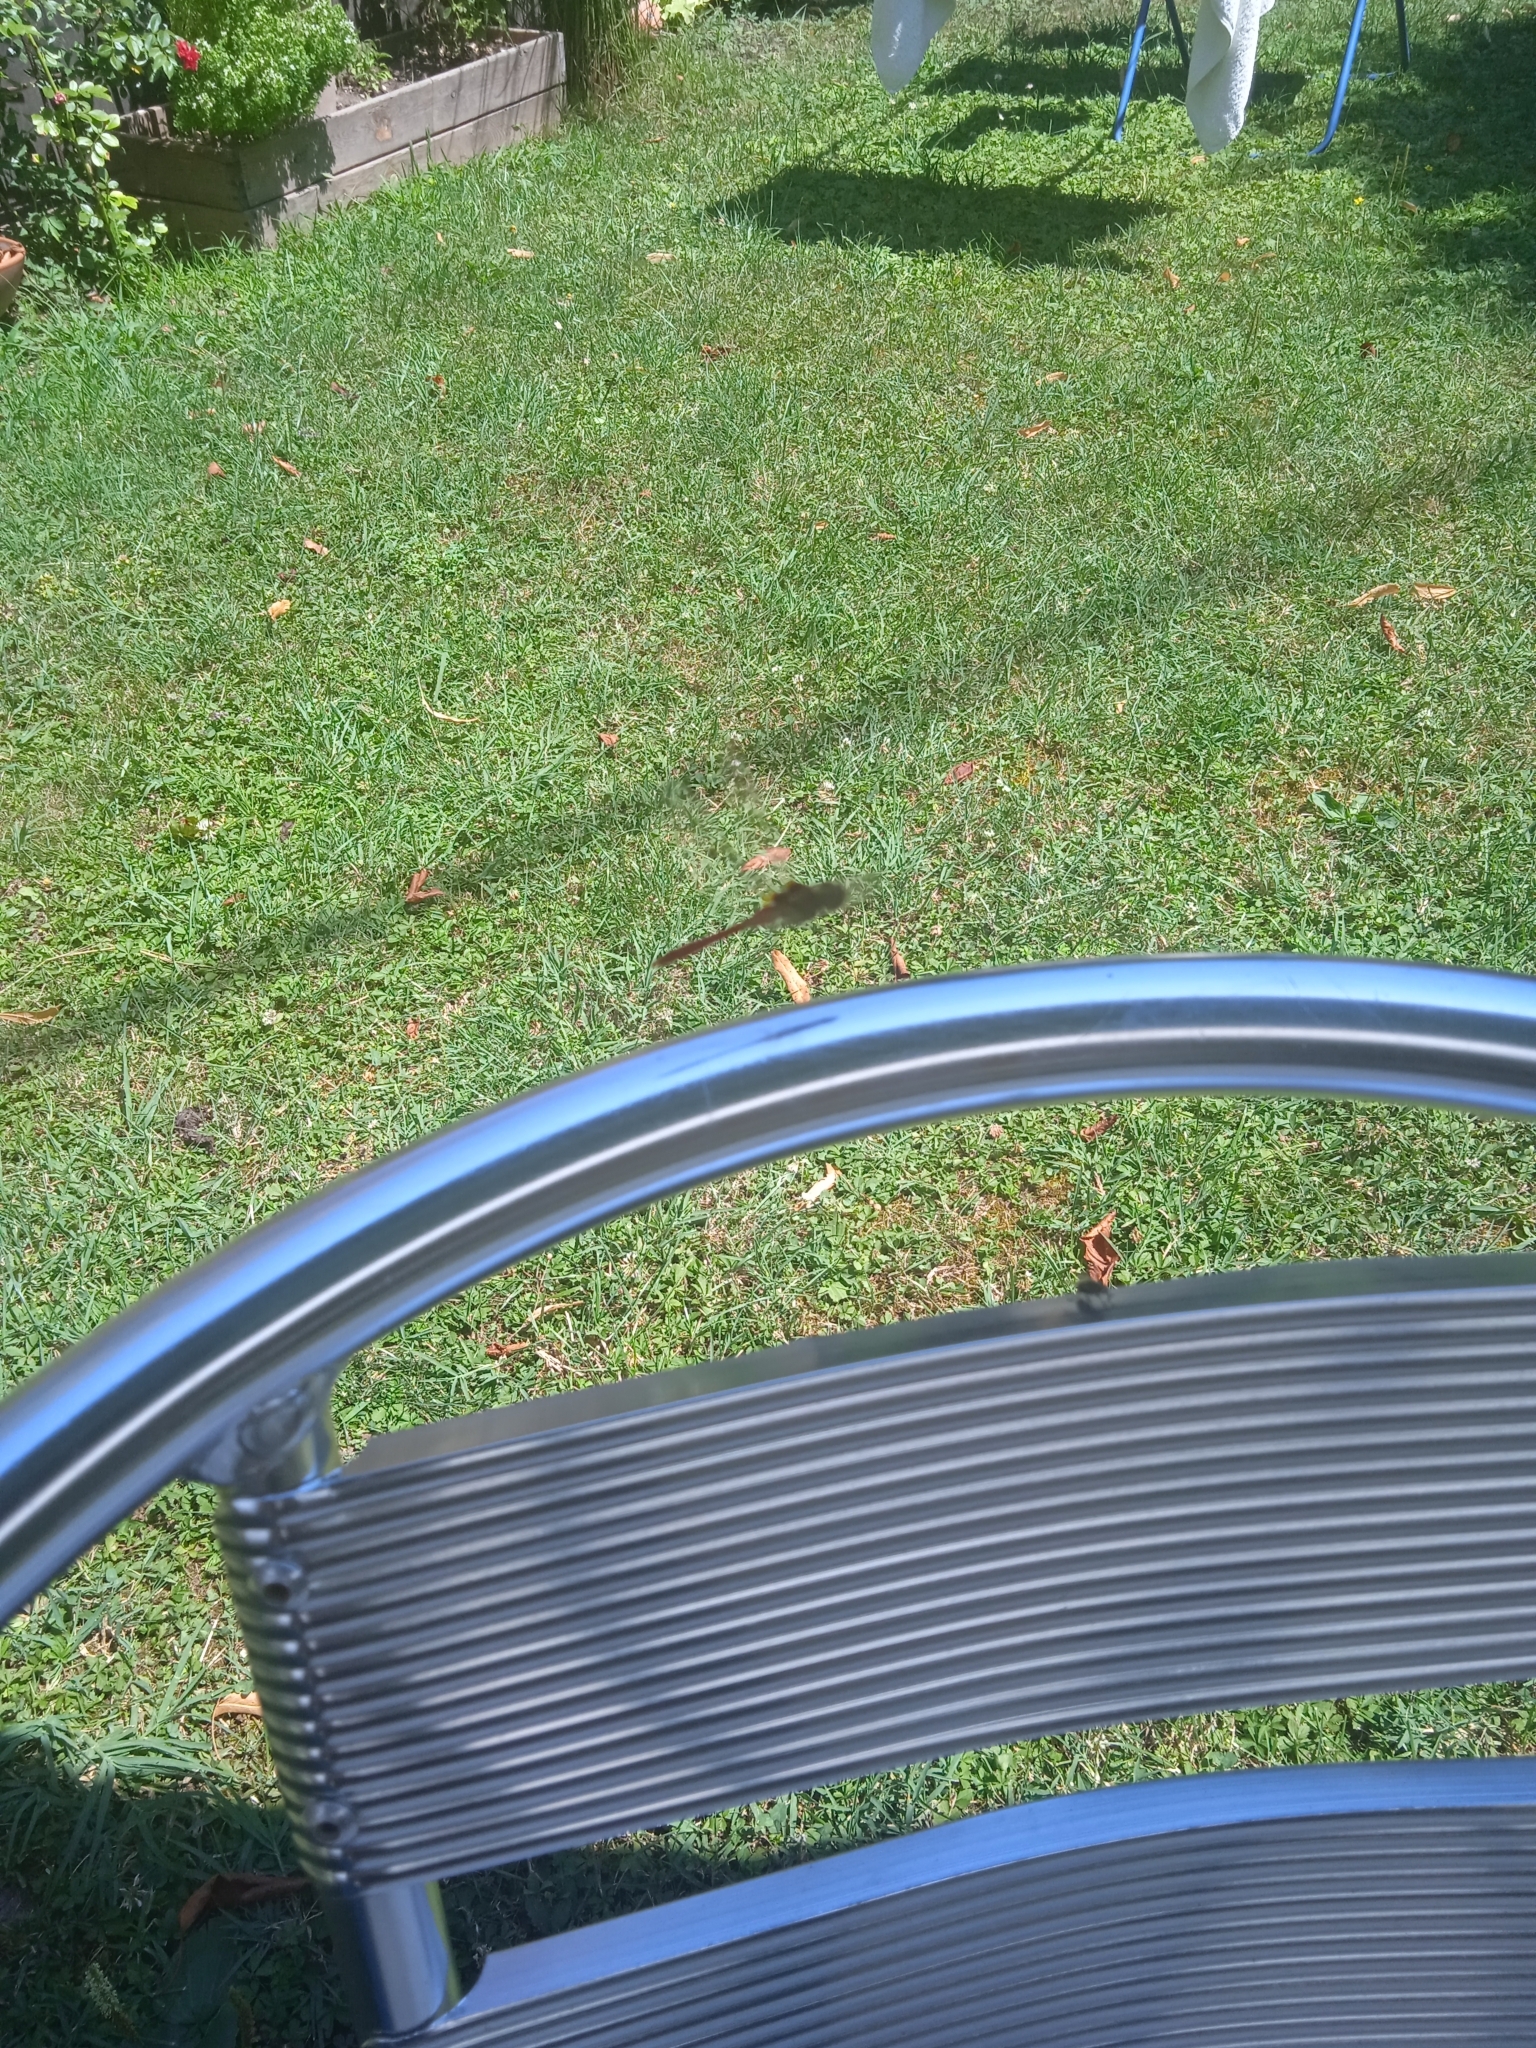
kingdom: Animalia
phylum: Arthropoda
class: Insecta
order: Odonata
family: Libellulidae
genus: Sympetrum
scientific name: Sympetrum sanguineum
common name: Ruddy darter
